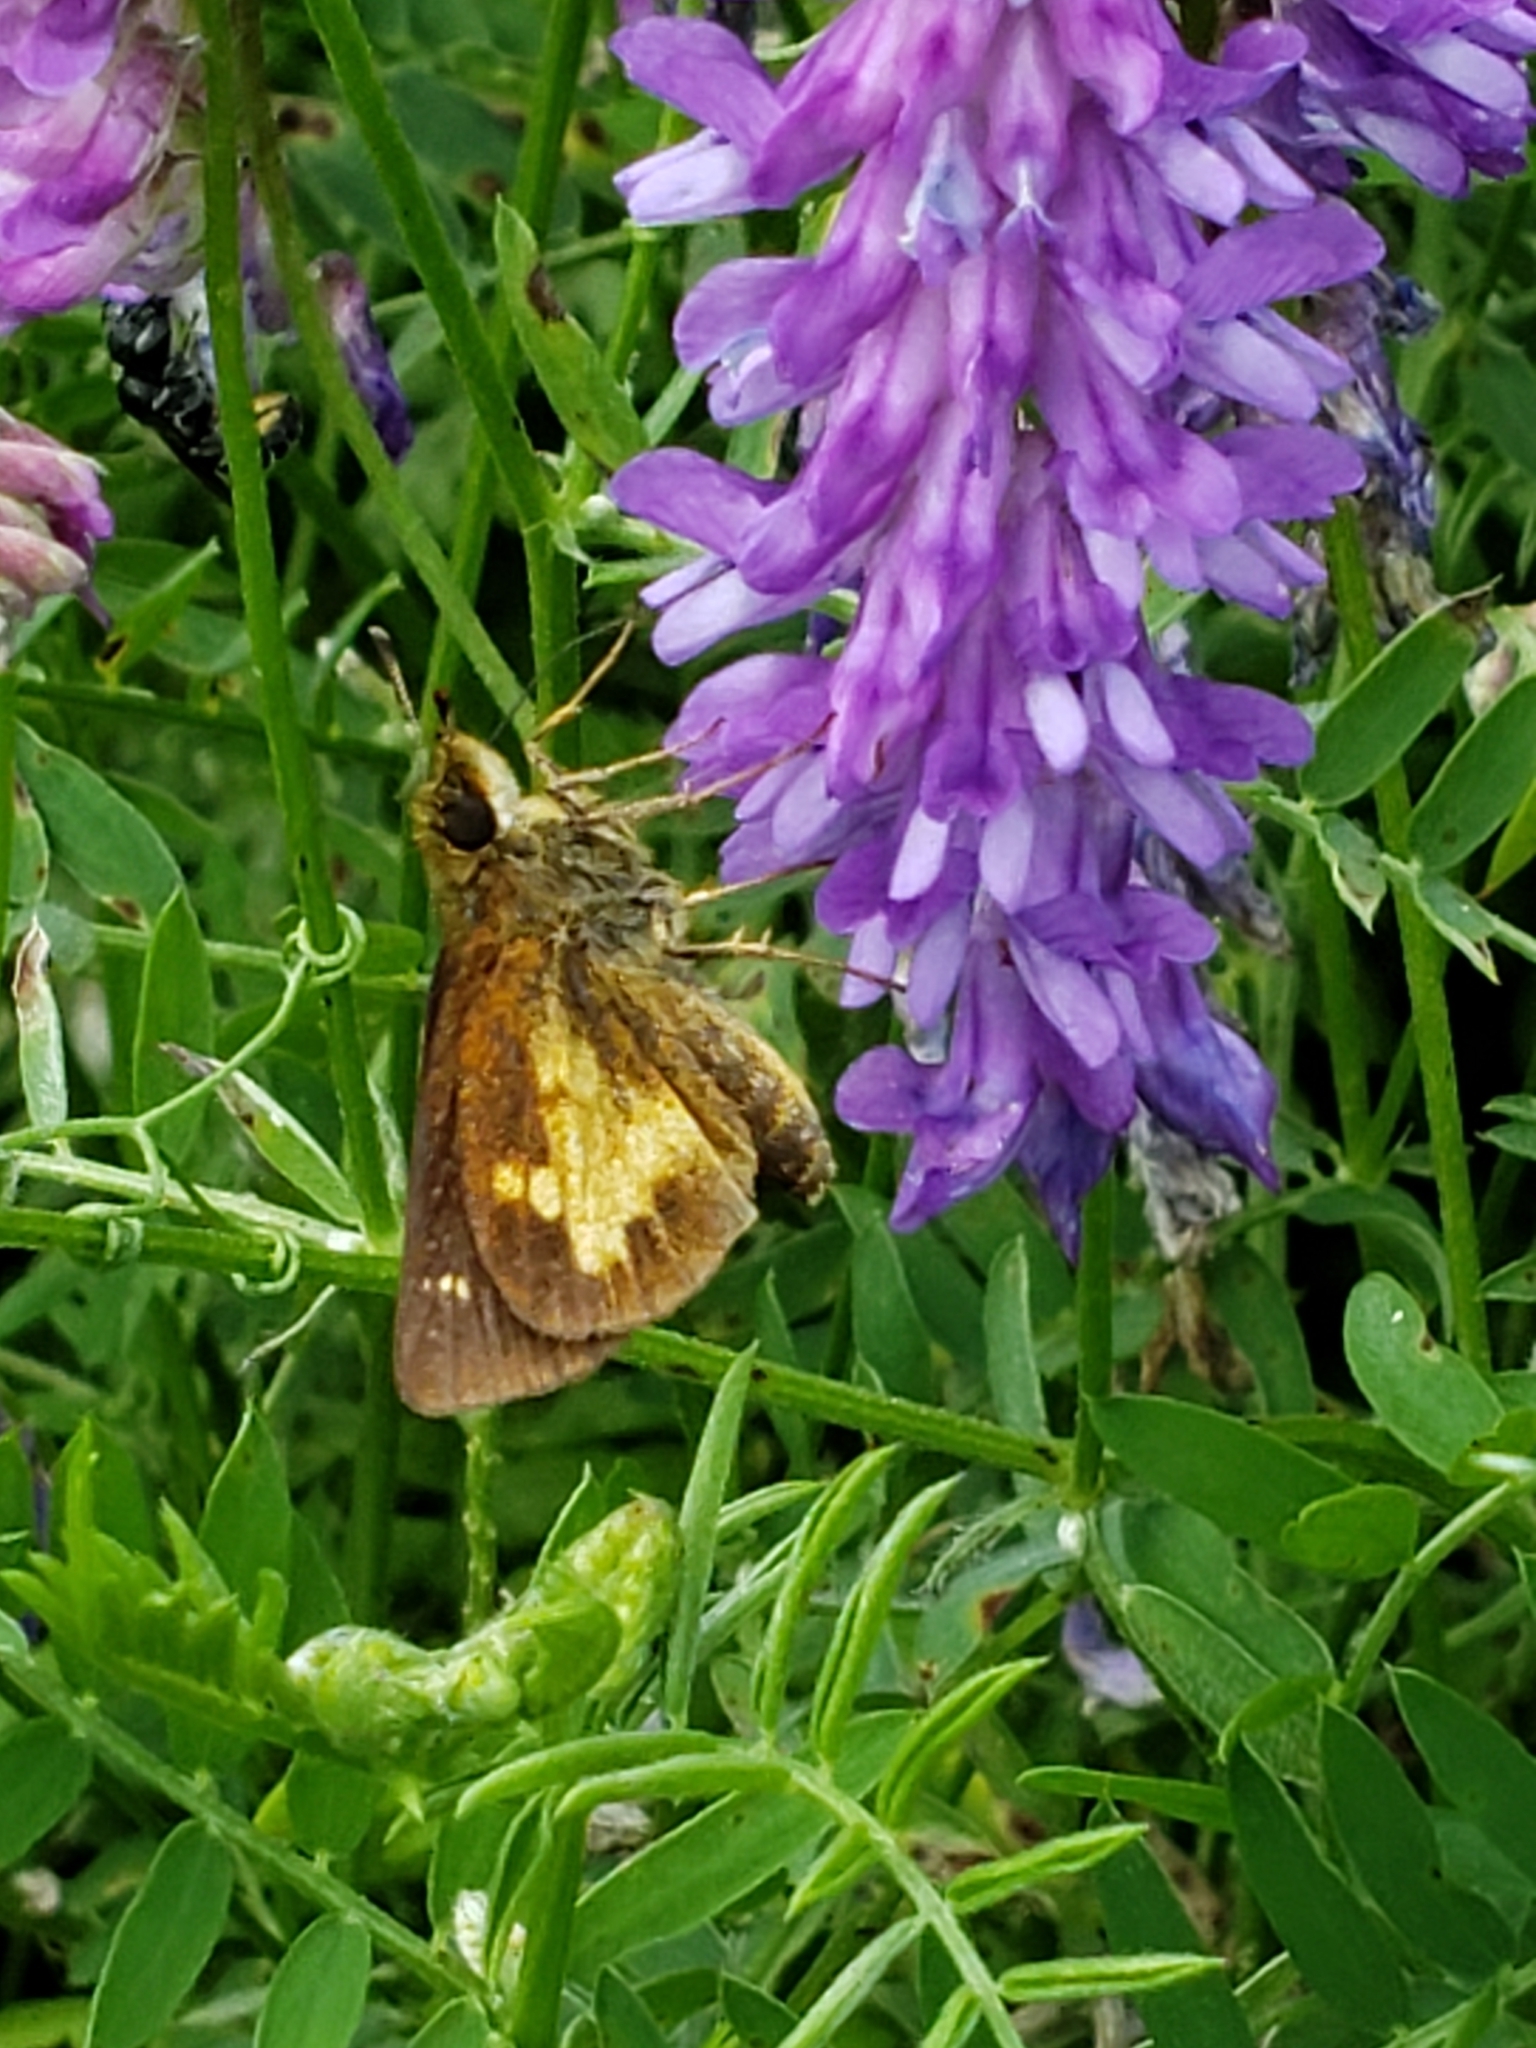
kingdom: Animalia
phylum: Arthropoda
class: Insecta
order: Lepidoptera
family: Hesperiidae
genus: Poanes
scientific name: Poanes massasoit
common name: Mulberrywing
